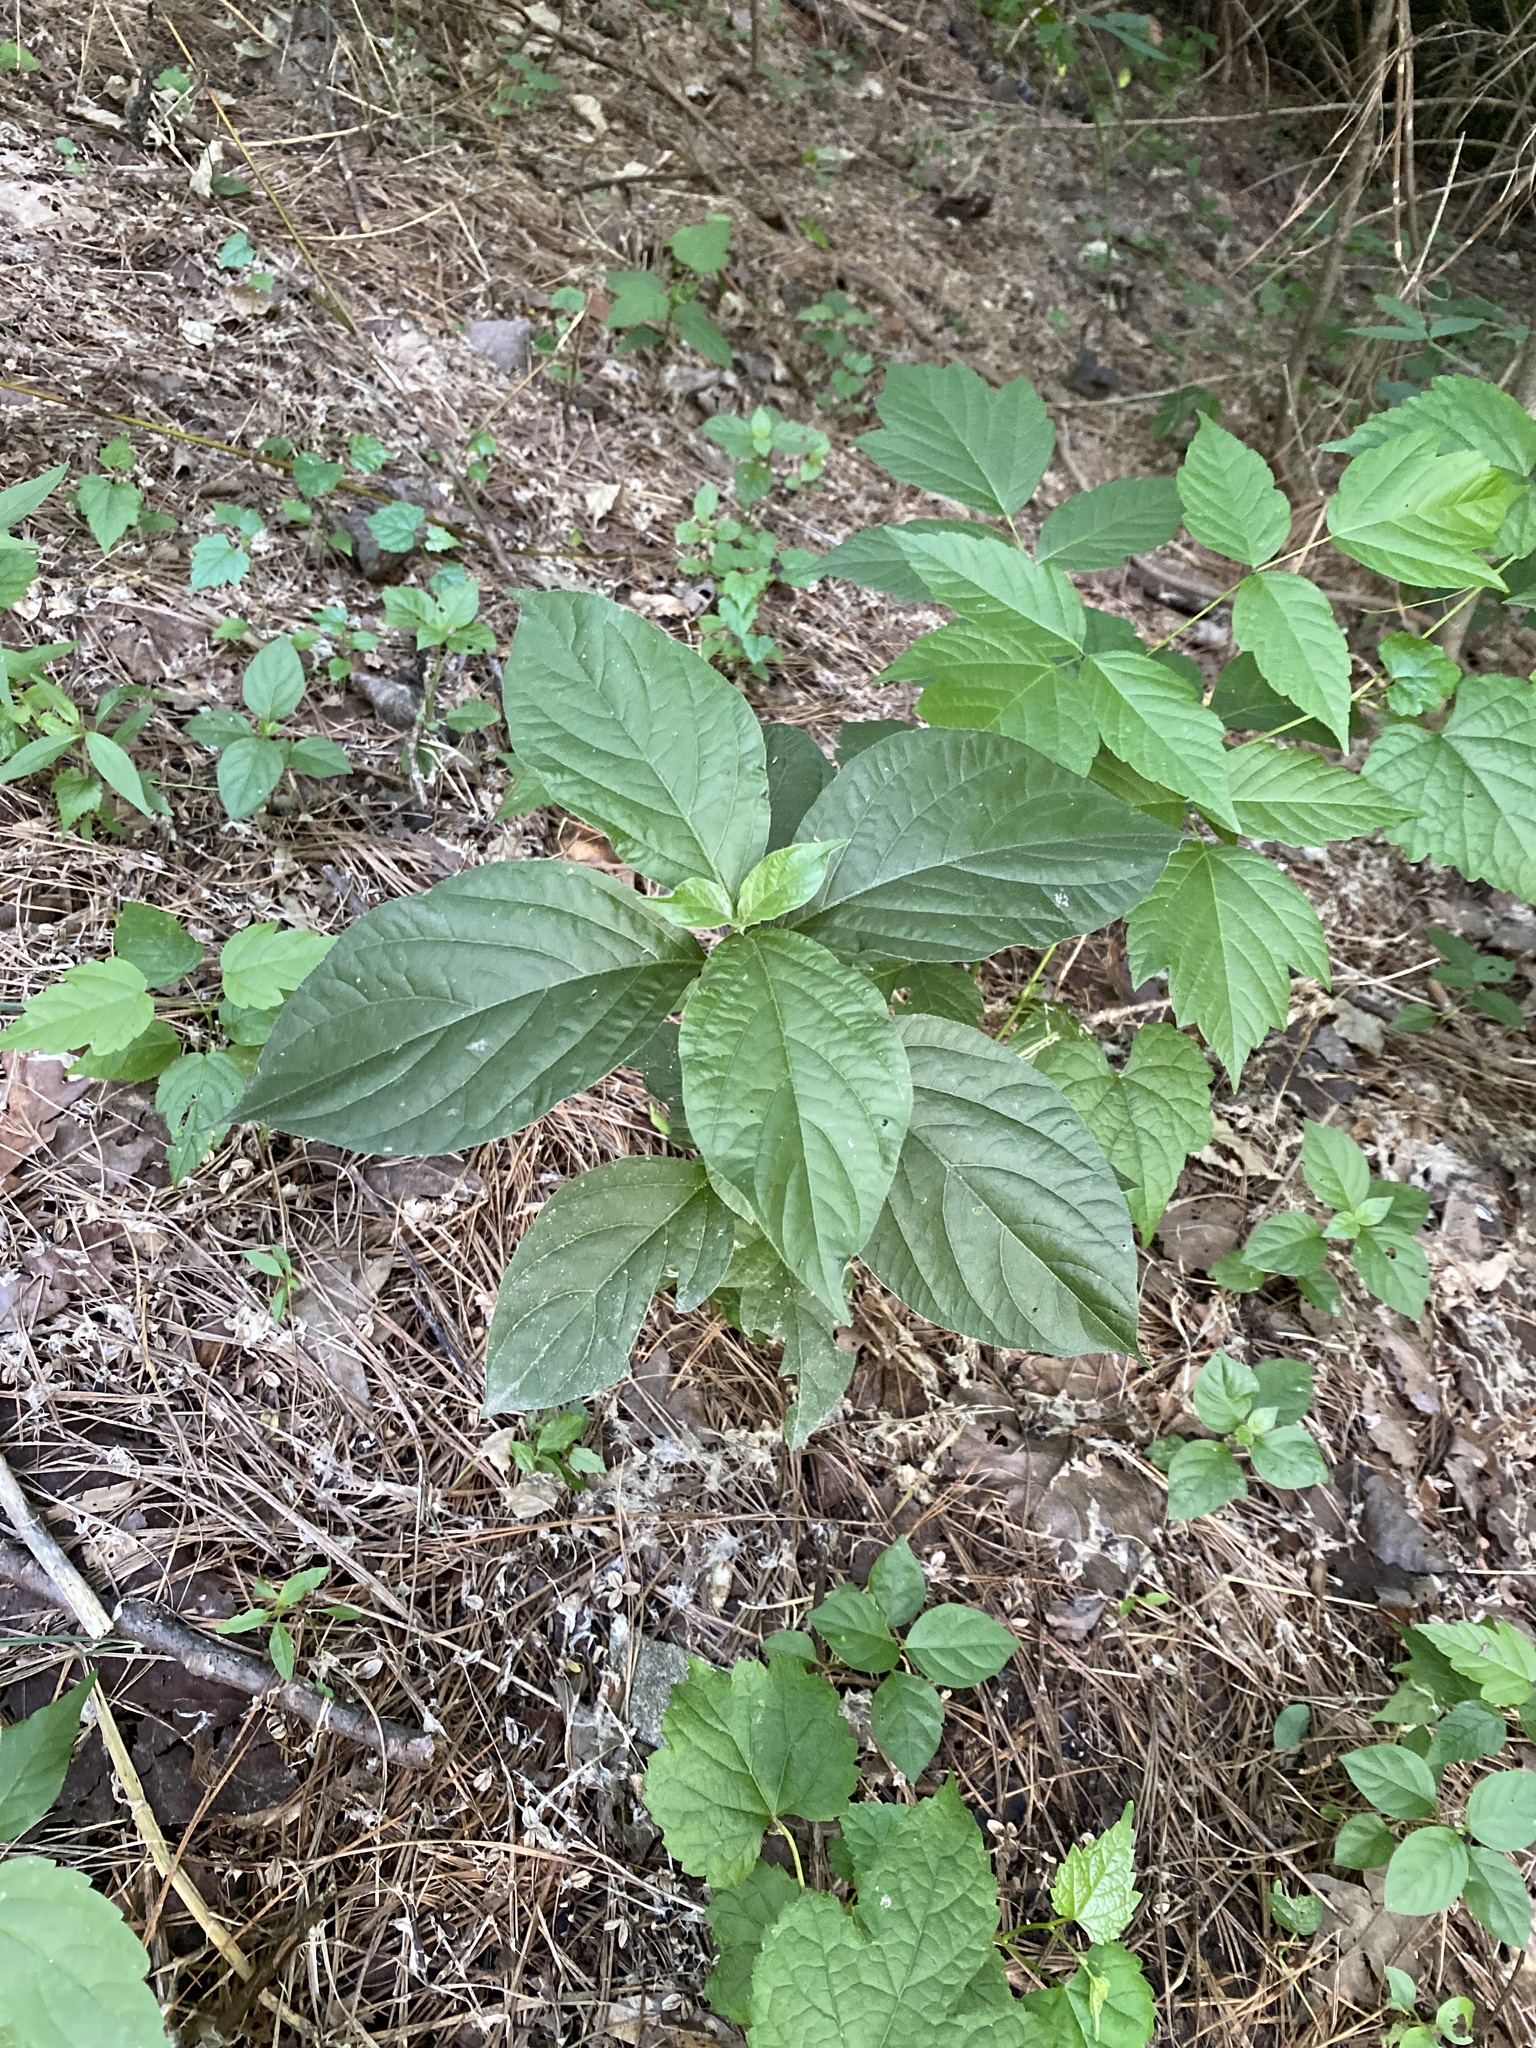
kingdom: Plantae
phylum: Tracheophyta
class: Magnoliopsida
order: Caryophyllales
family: Amaranthaceae
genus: Achyranthes
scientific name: Achyranthes bidentata
